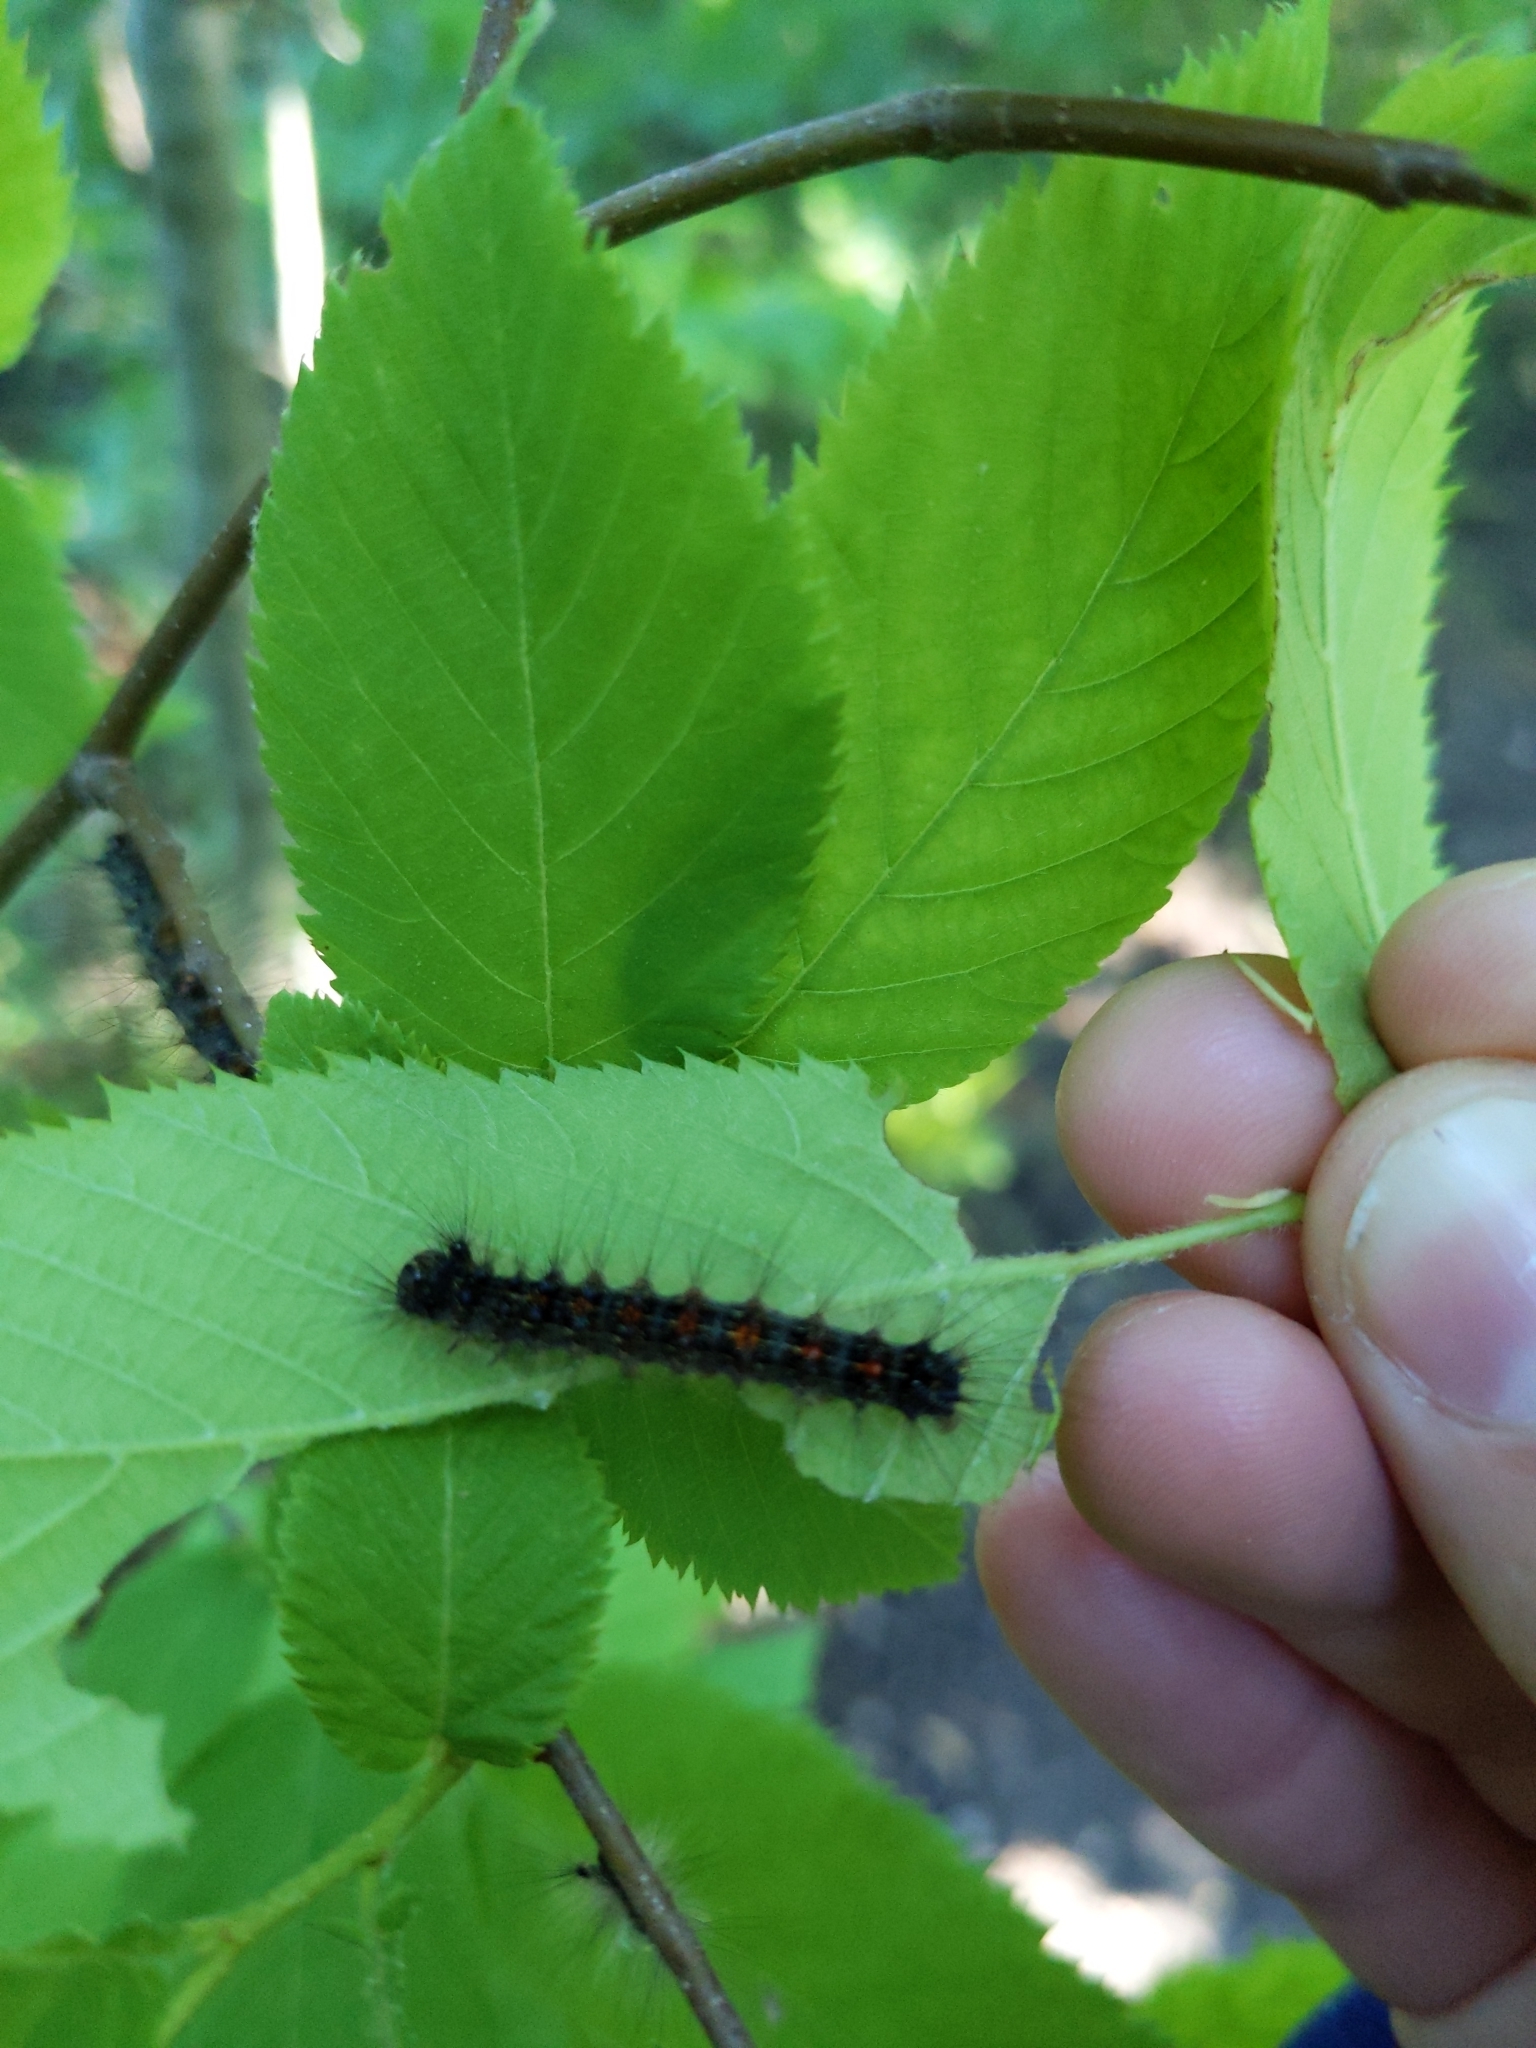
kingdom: Animalia
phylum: Arthropoda
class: Insecta
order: Lepidoptera
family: Erebidae
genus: Lymantria
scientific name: Lymantria dispar
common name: Gypsy moth
